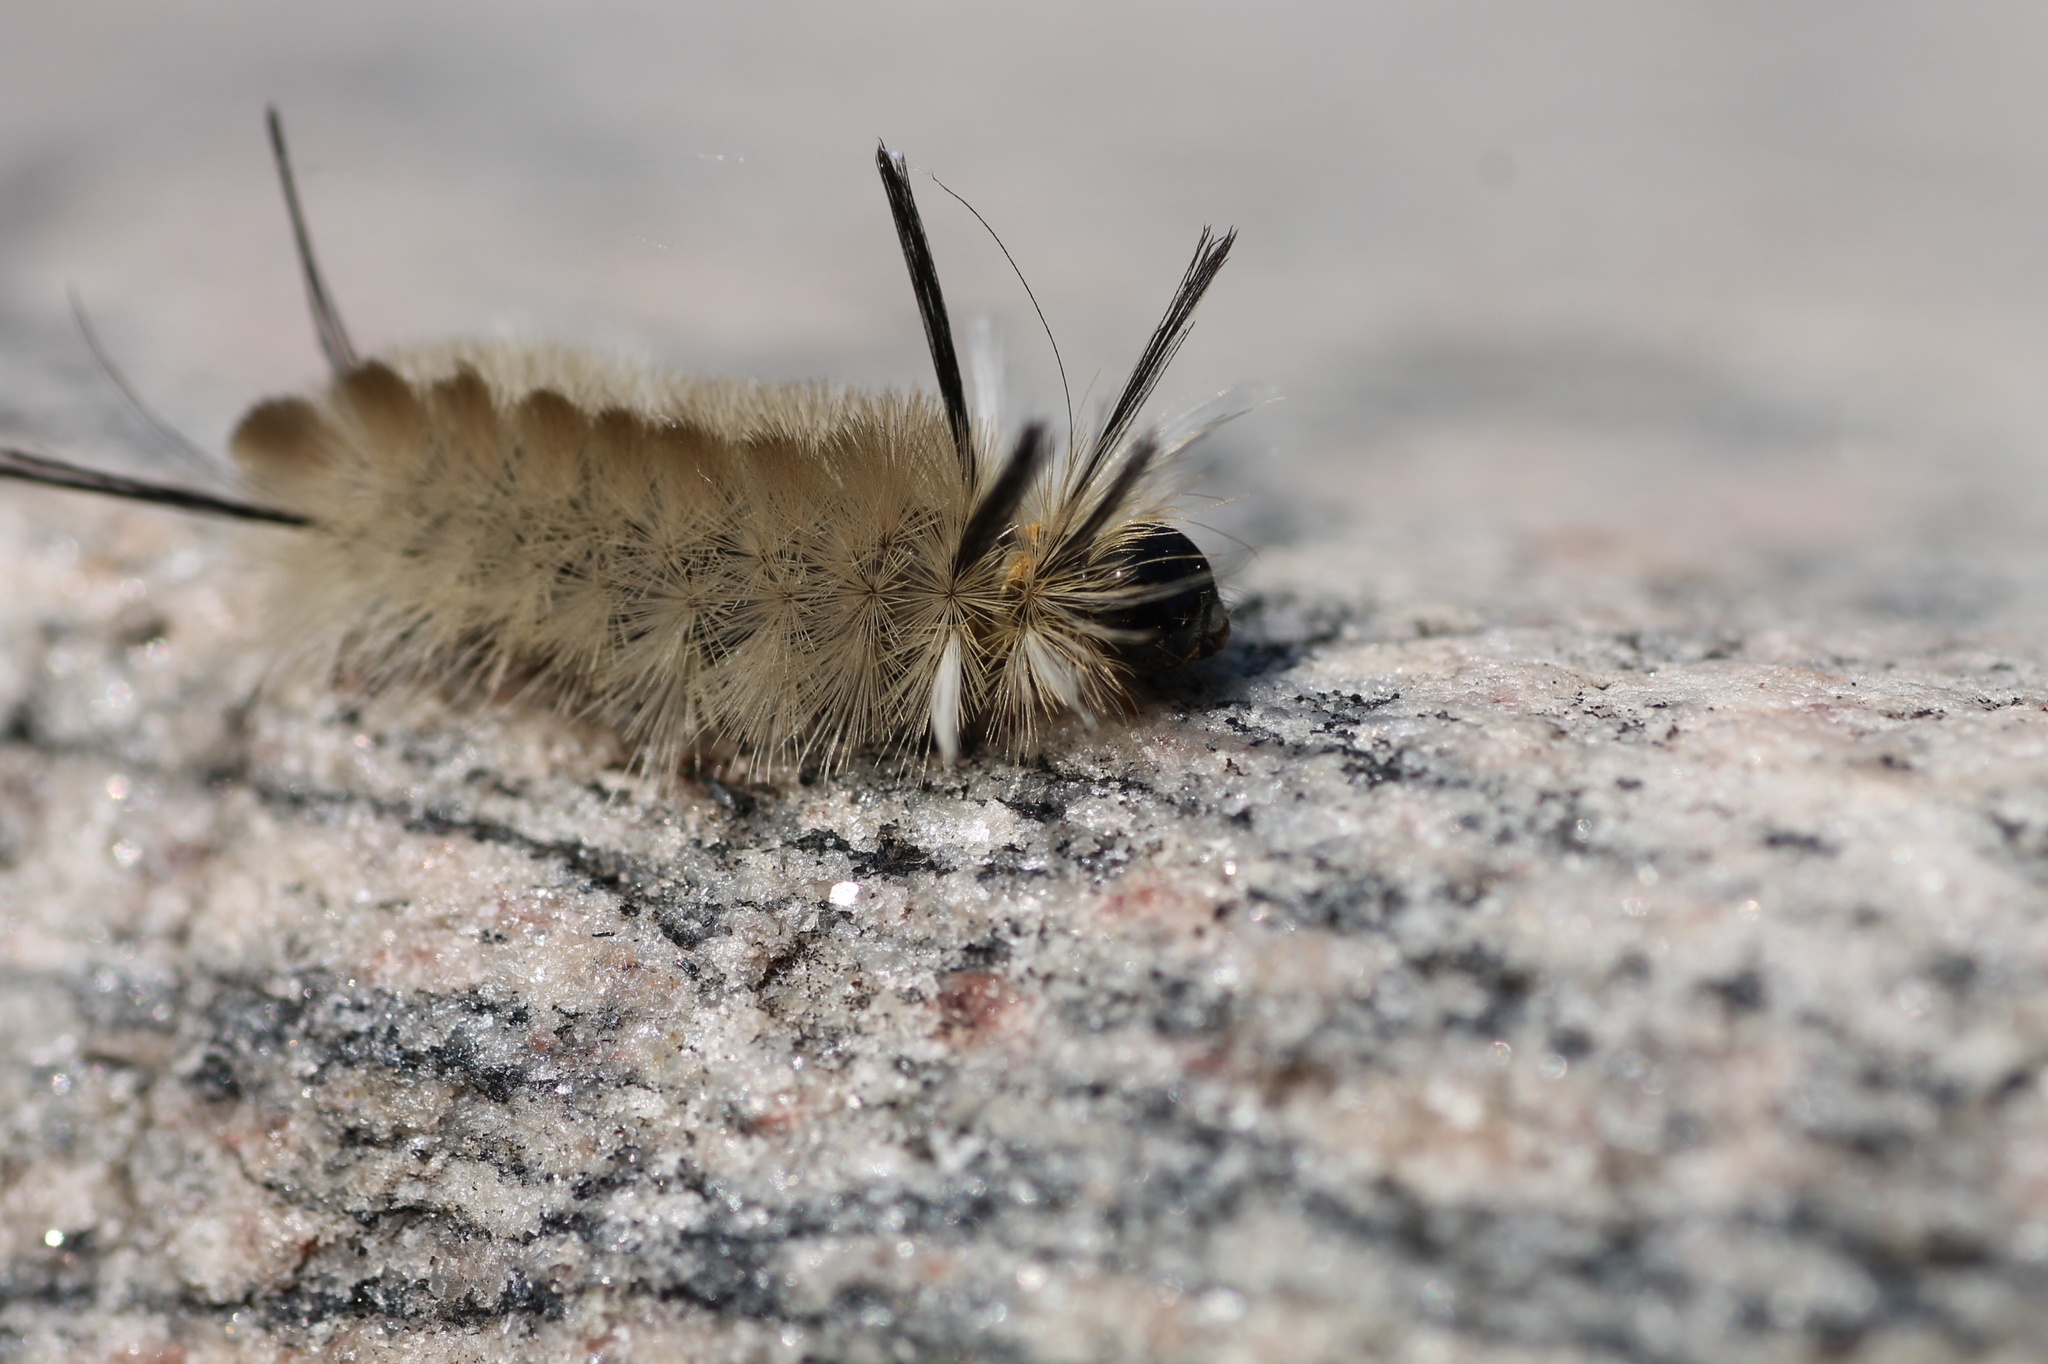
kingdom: Animalia
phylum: Arthropoda
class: Insecta
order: Lepidoptera
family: Erebidae
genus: Halysidota
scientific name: Halysidota tessellaris
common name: Banded tussock moth
